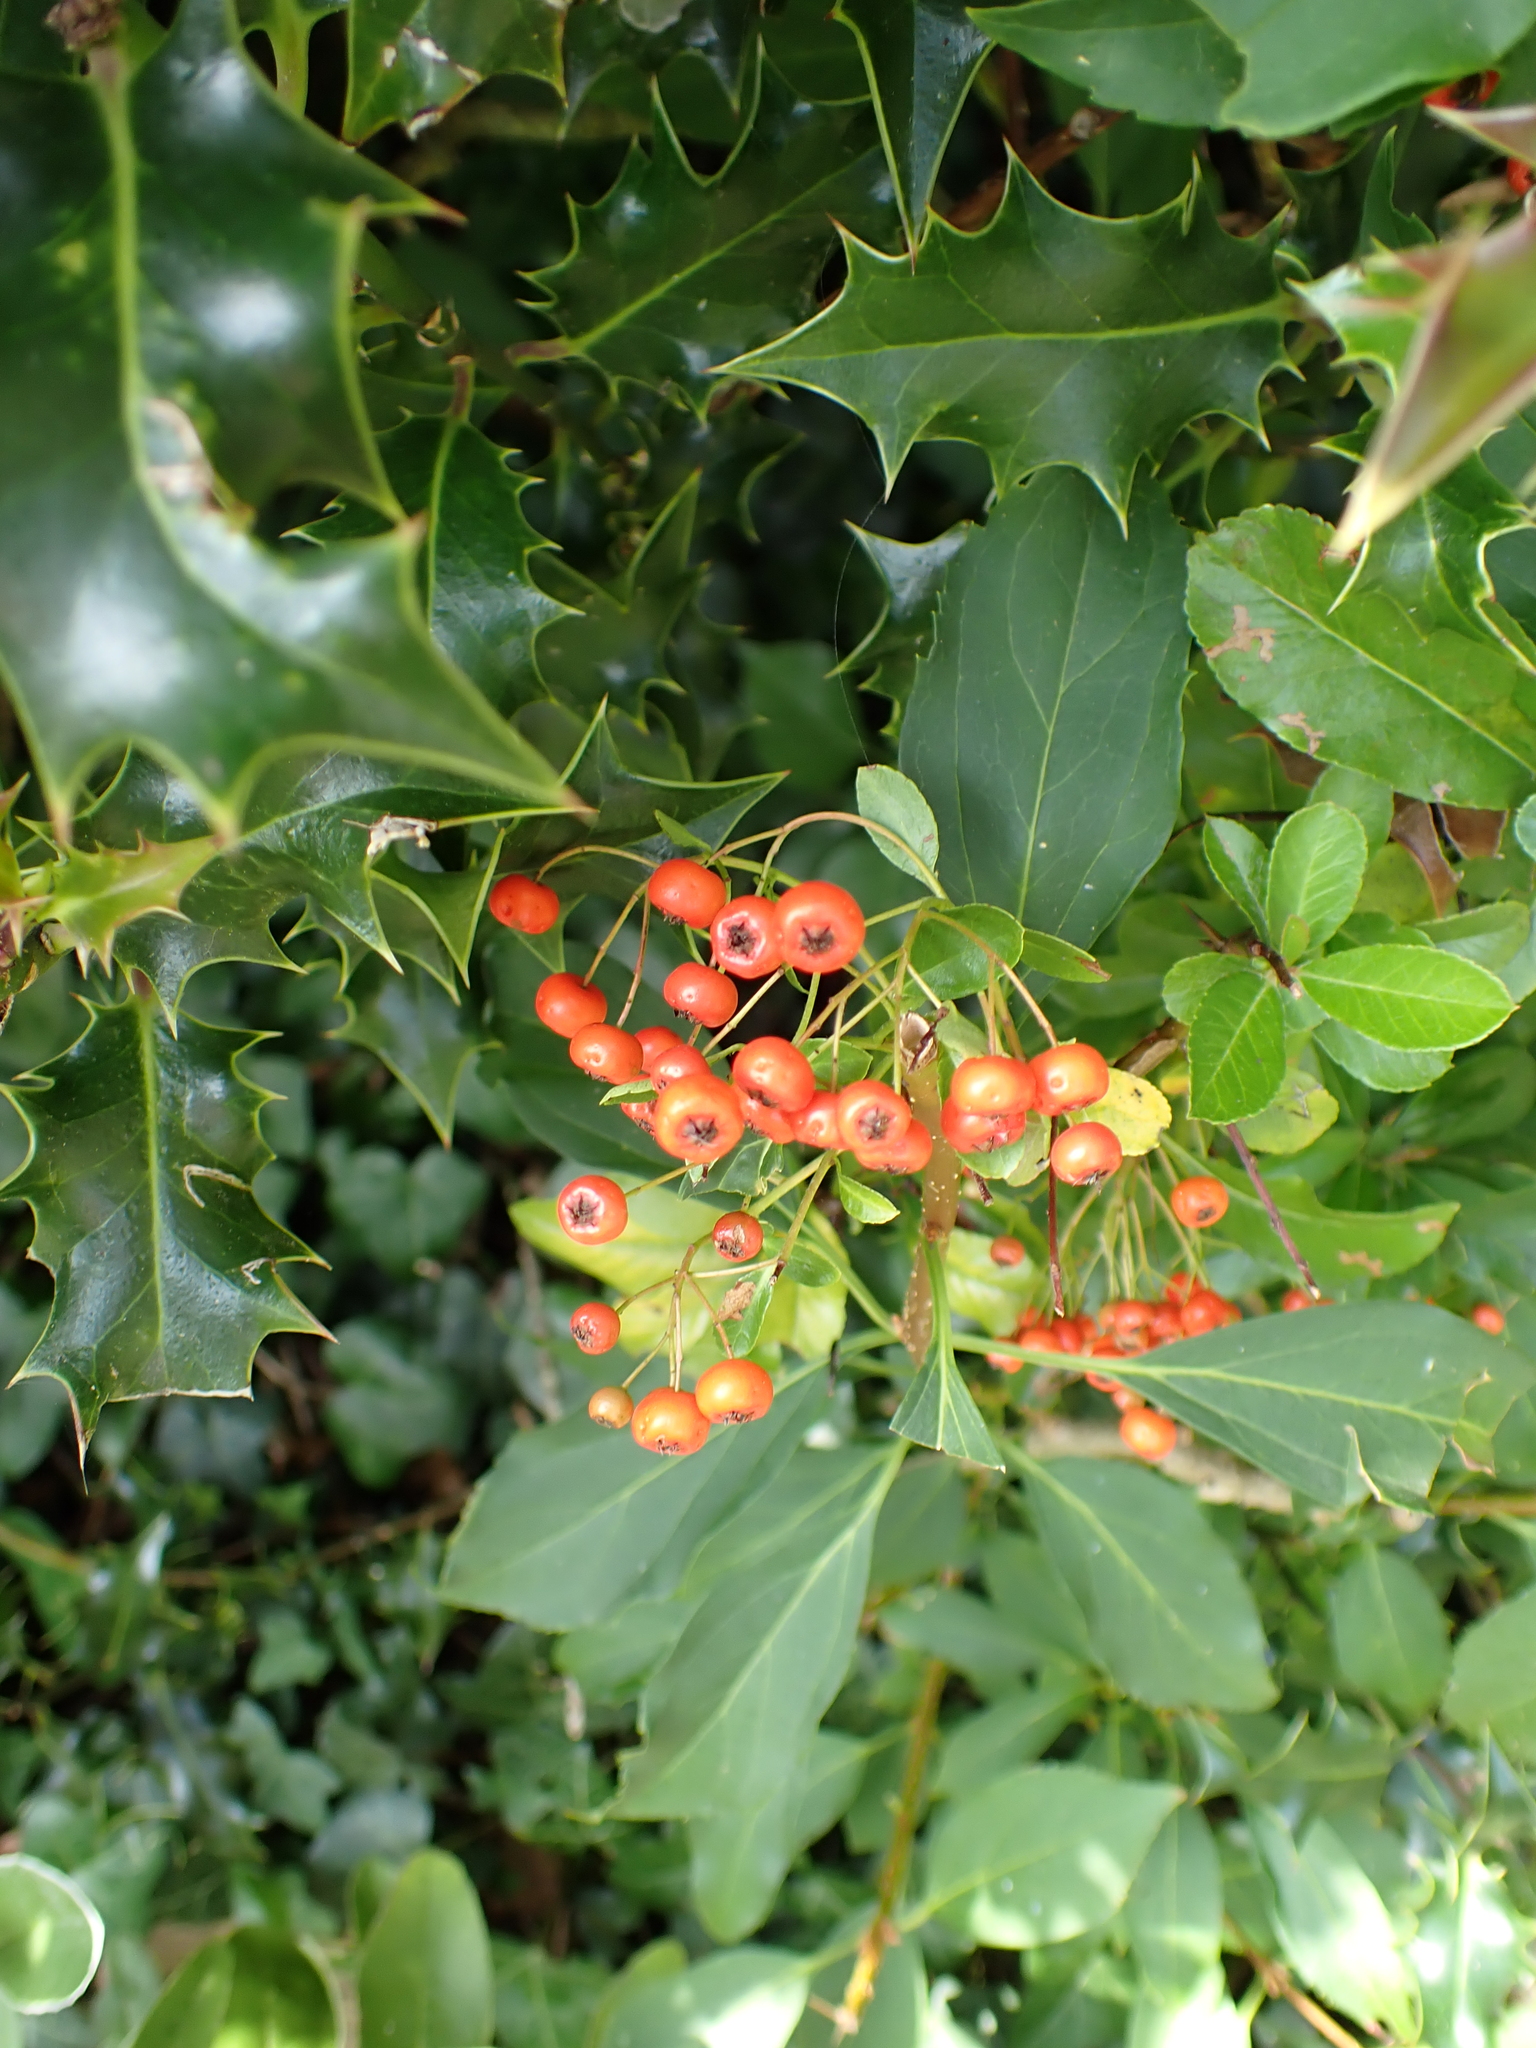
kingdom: Plantae
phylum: Tracheophyta
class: Magnoliopsida
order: Rosales
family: Rosaceae
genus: Pyracantha
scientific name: Pyracantha coccinea
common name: Firethorn
